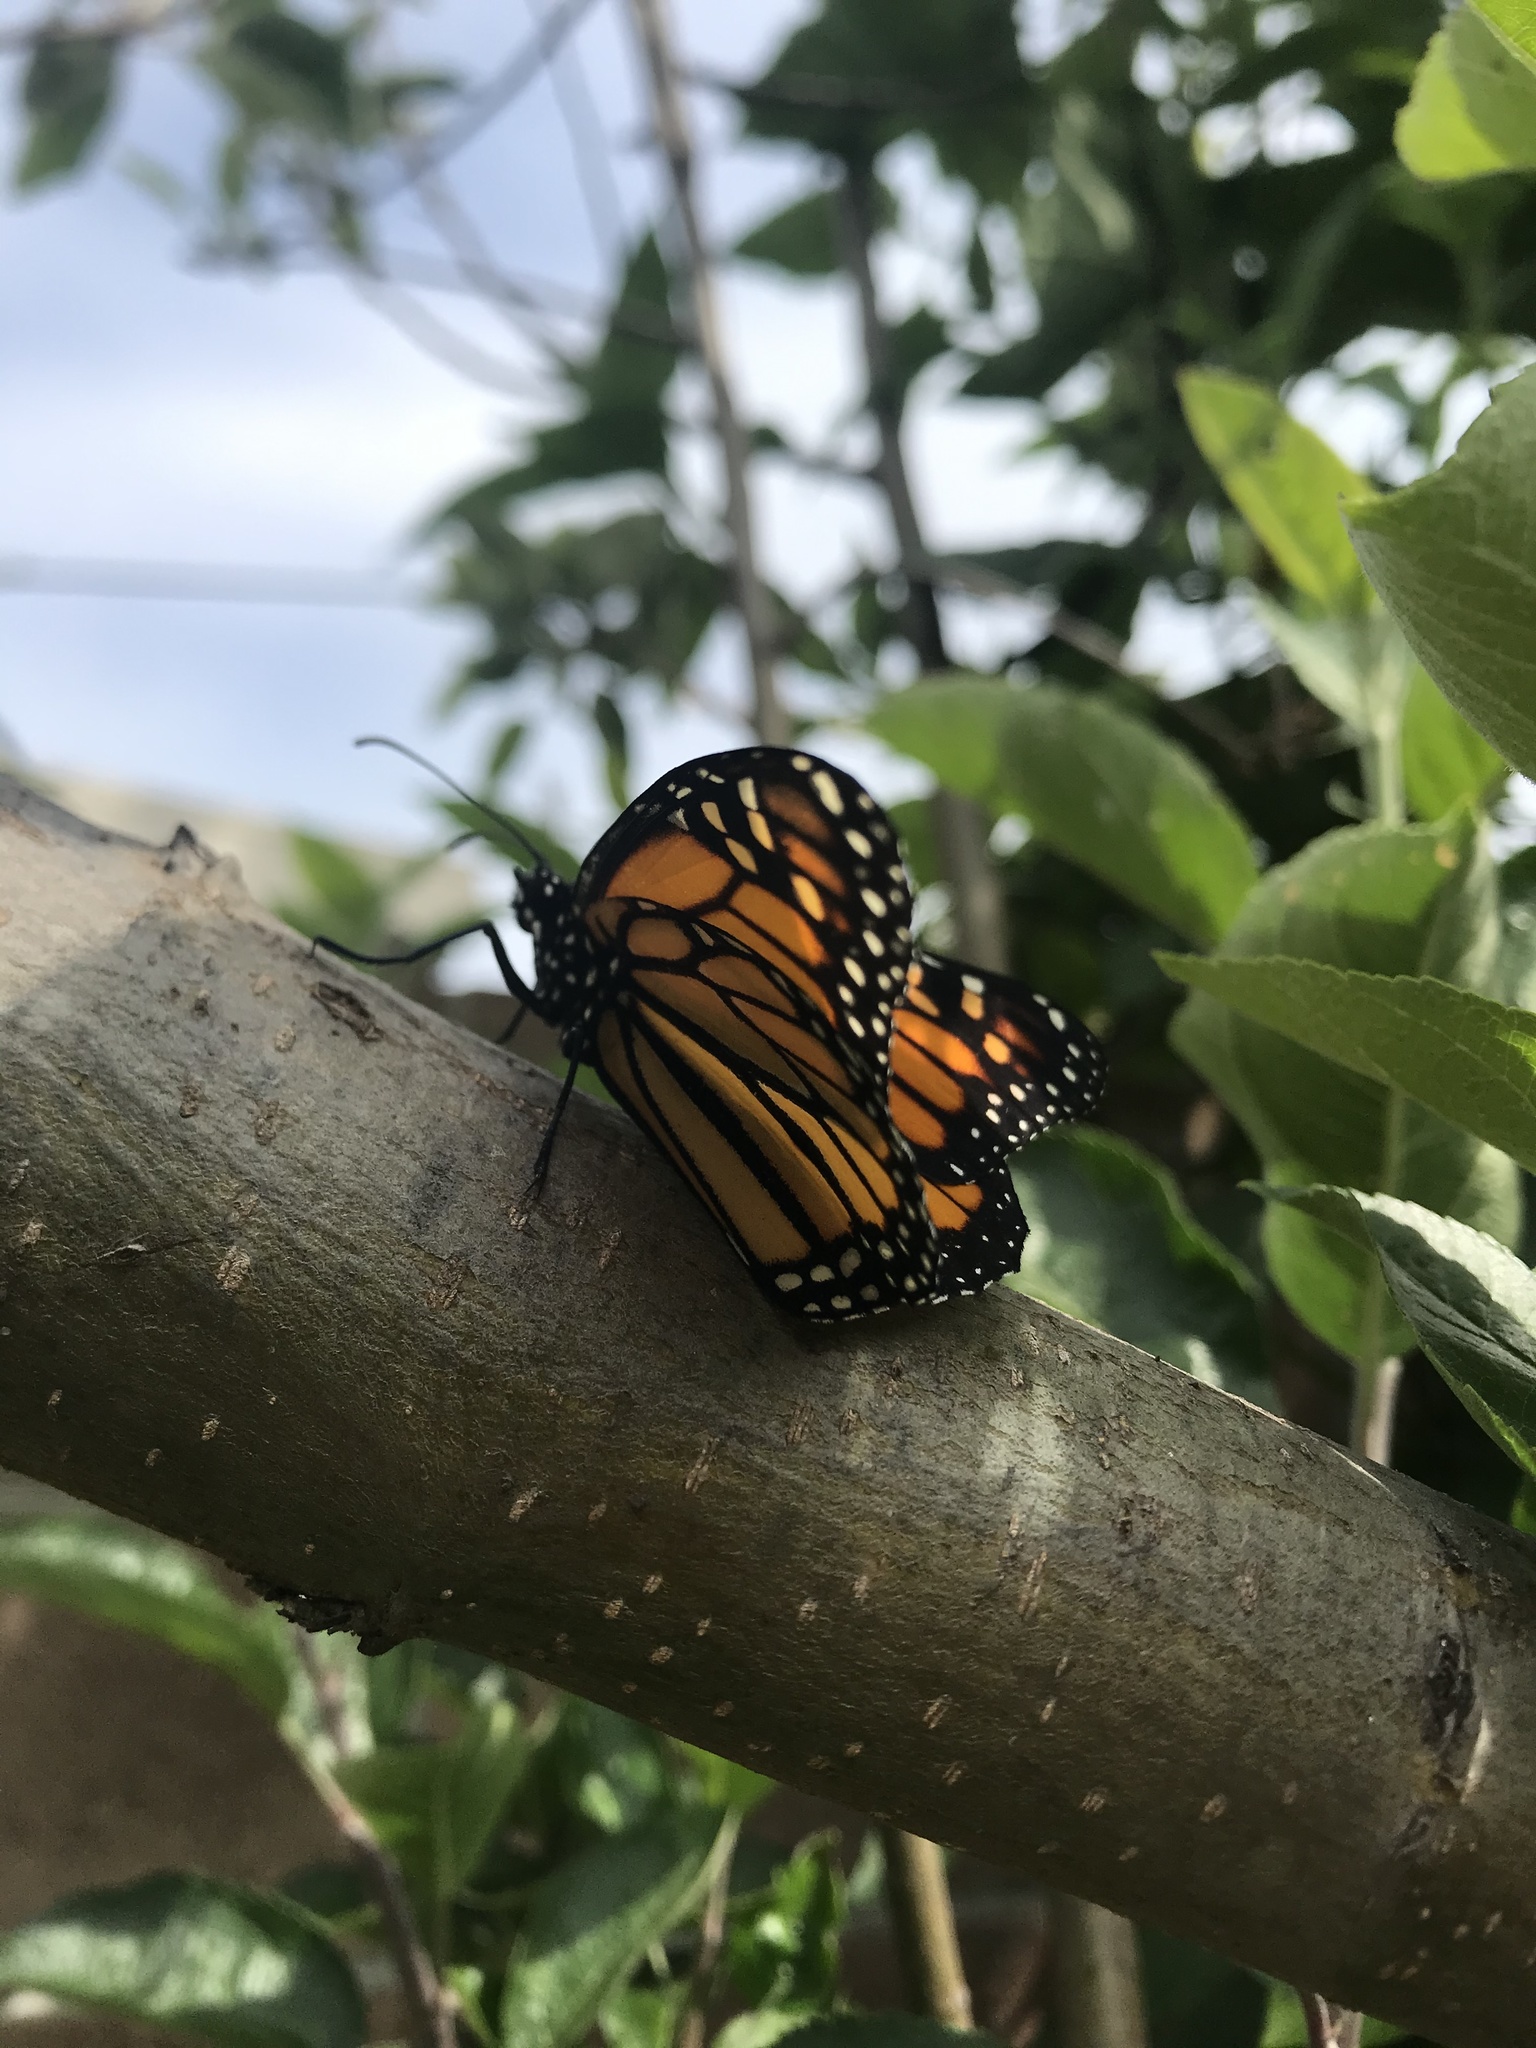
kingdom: Animalia
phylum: Arthropoda
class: Insecta
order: Lepidoptera
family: Nymphalidae
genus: Danaus
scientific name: Danaus plexippus
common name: Monarch
